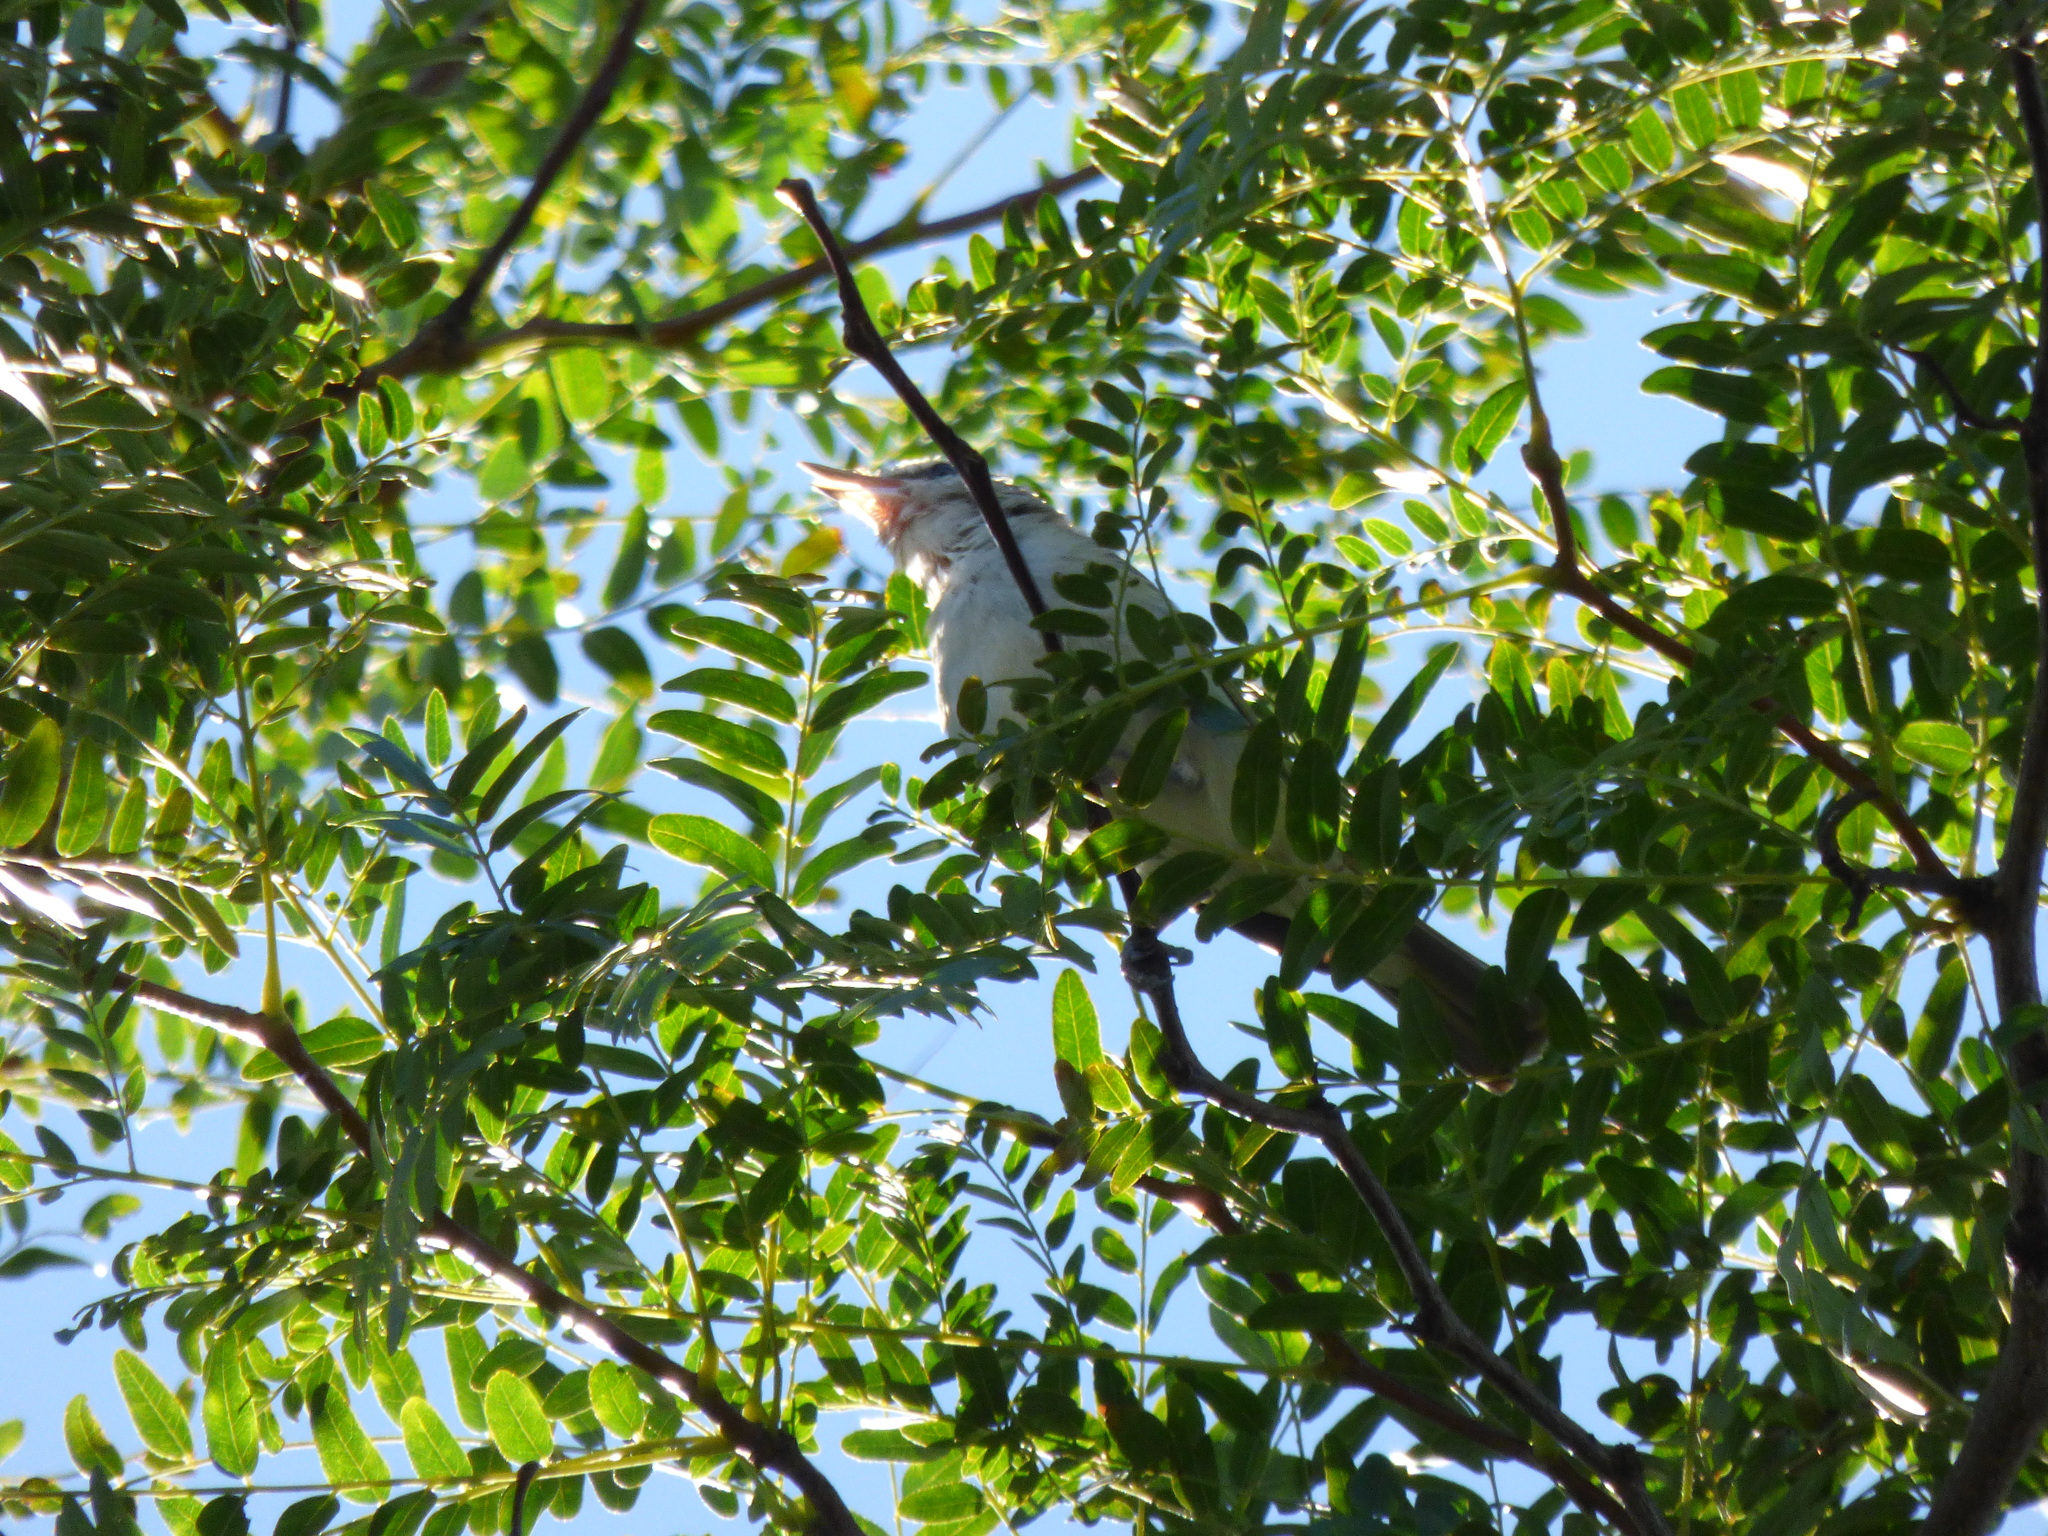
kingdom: Animalia
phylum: Chordata
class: Aves
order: Passeriformes
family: Vireonidae
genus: Vireo
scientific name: Vireo olivaceus
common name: Red-eyed vireo
